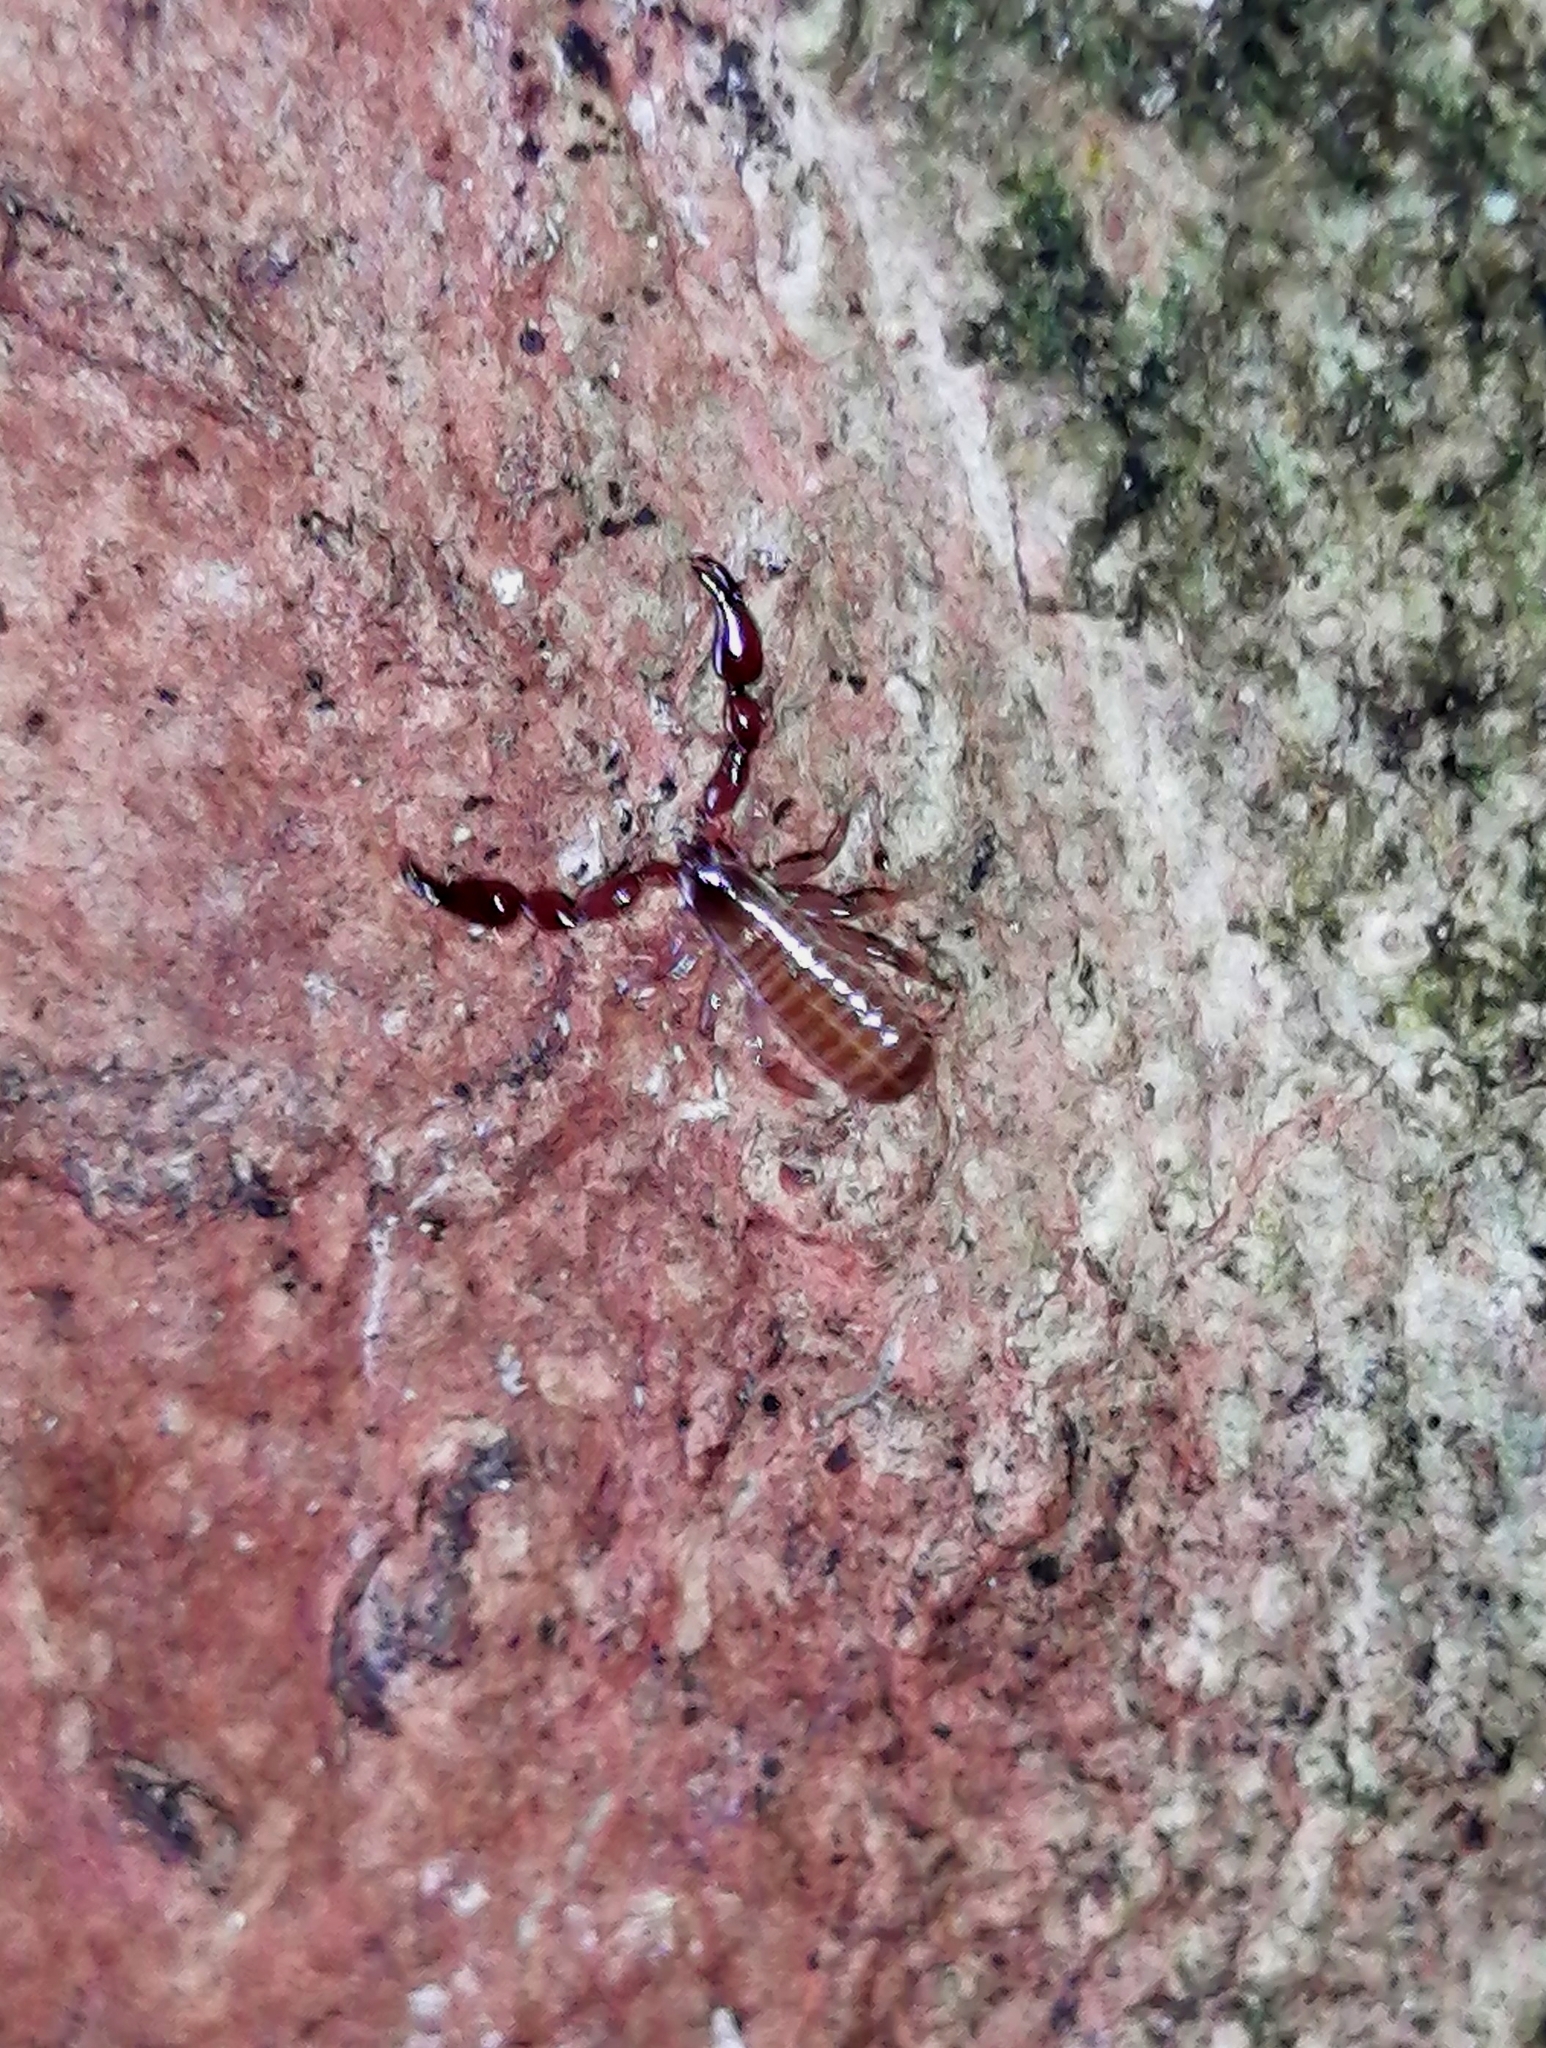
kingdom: Animalia
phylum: Arthropoda
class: Arachnida
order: Pseudoscorpiones
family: Chernetidae
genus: Parachernes
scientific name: Parachernes melanopygus
